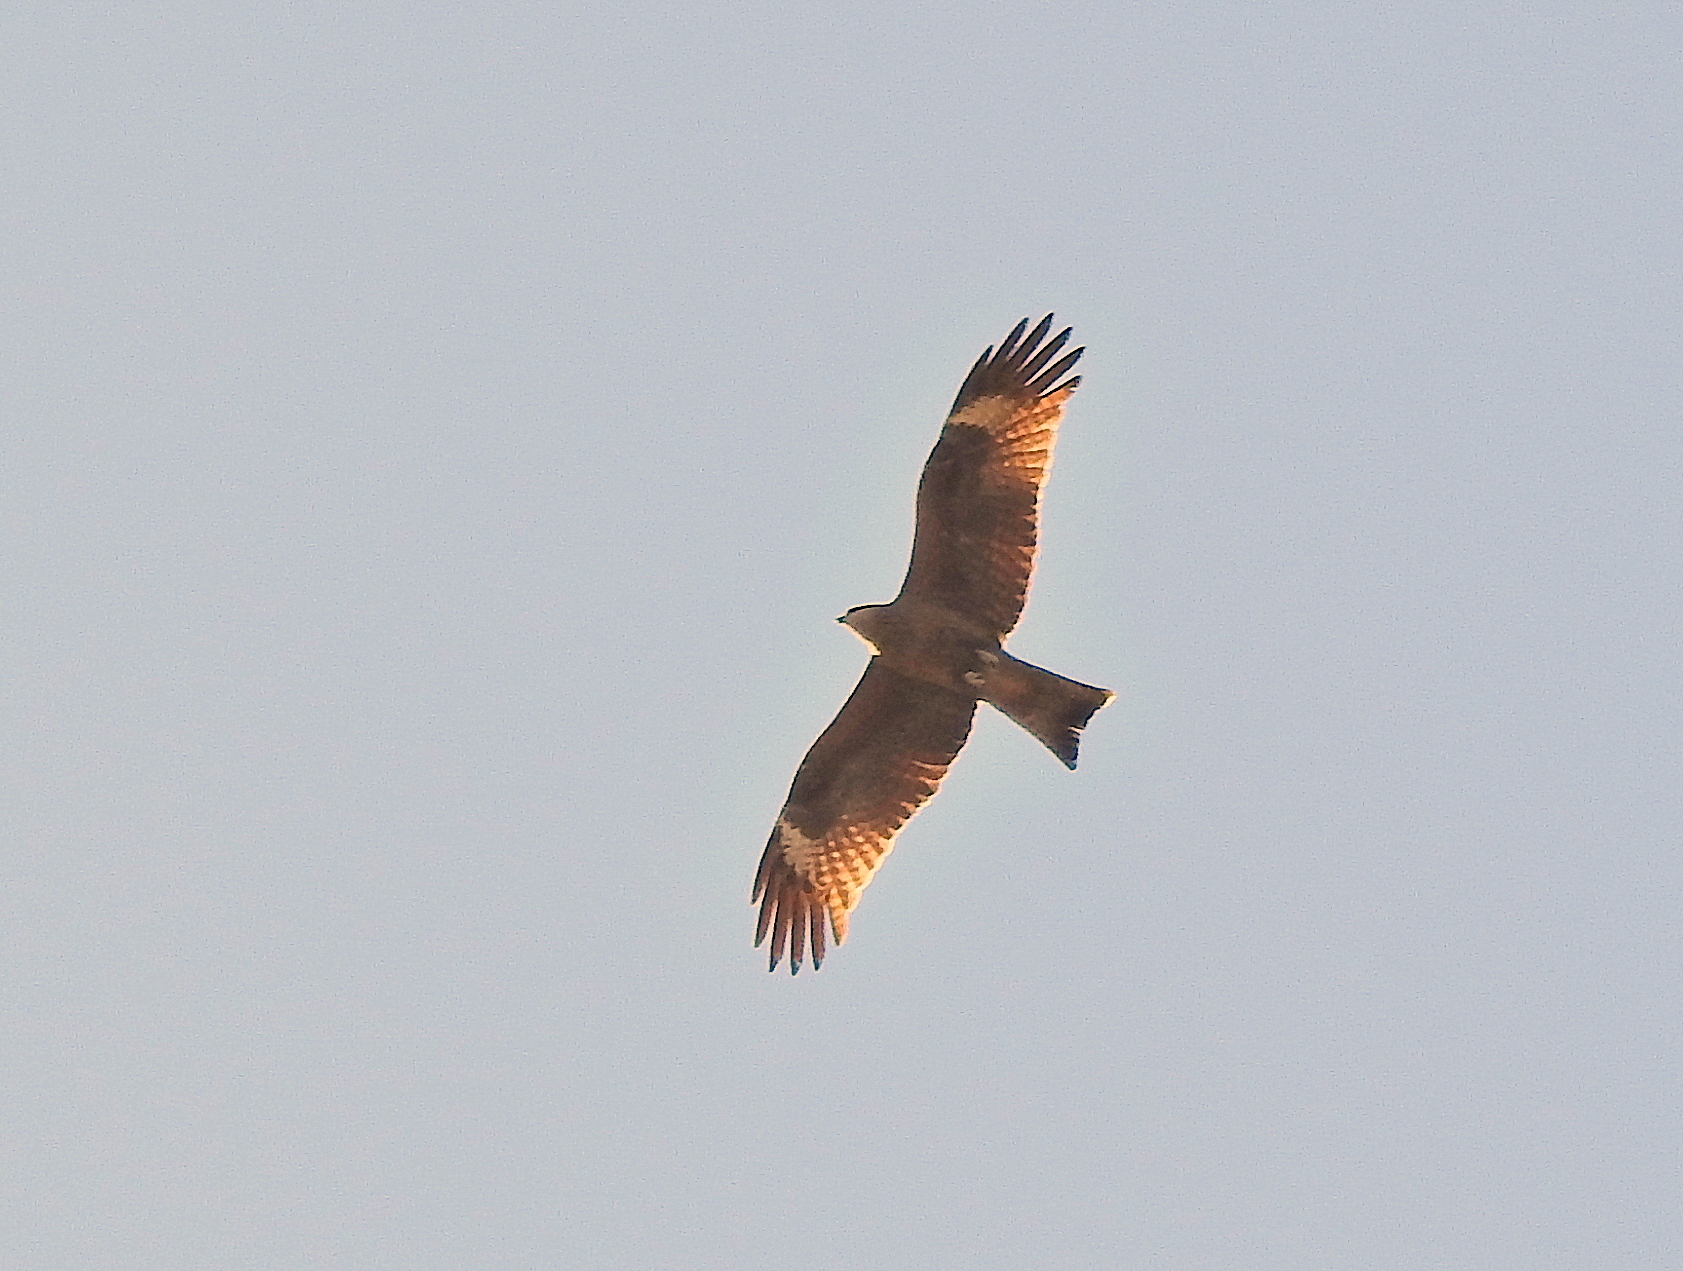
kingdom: Animalia
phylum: Chordata
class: Aves
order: Accipitriformes
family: Accipitridae
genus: Milvus
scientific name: Milvus migrans
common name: Black kite
